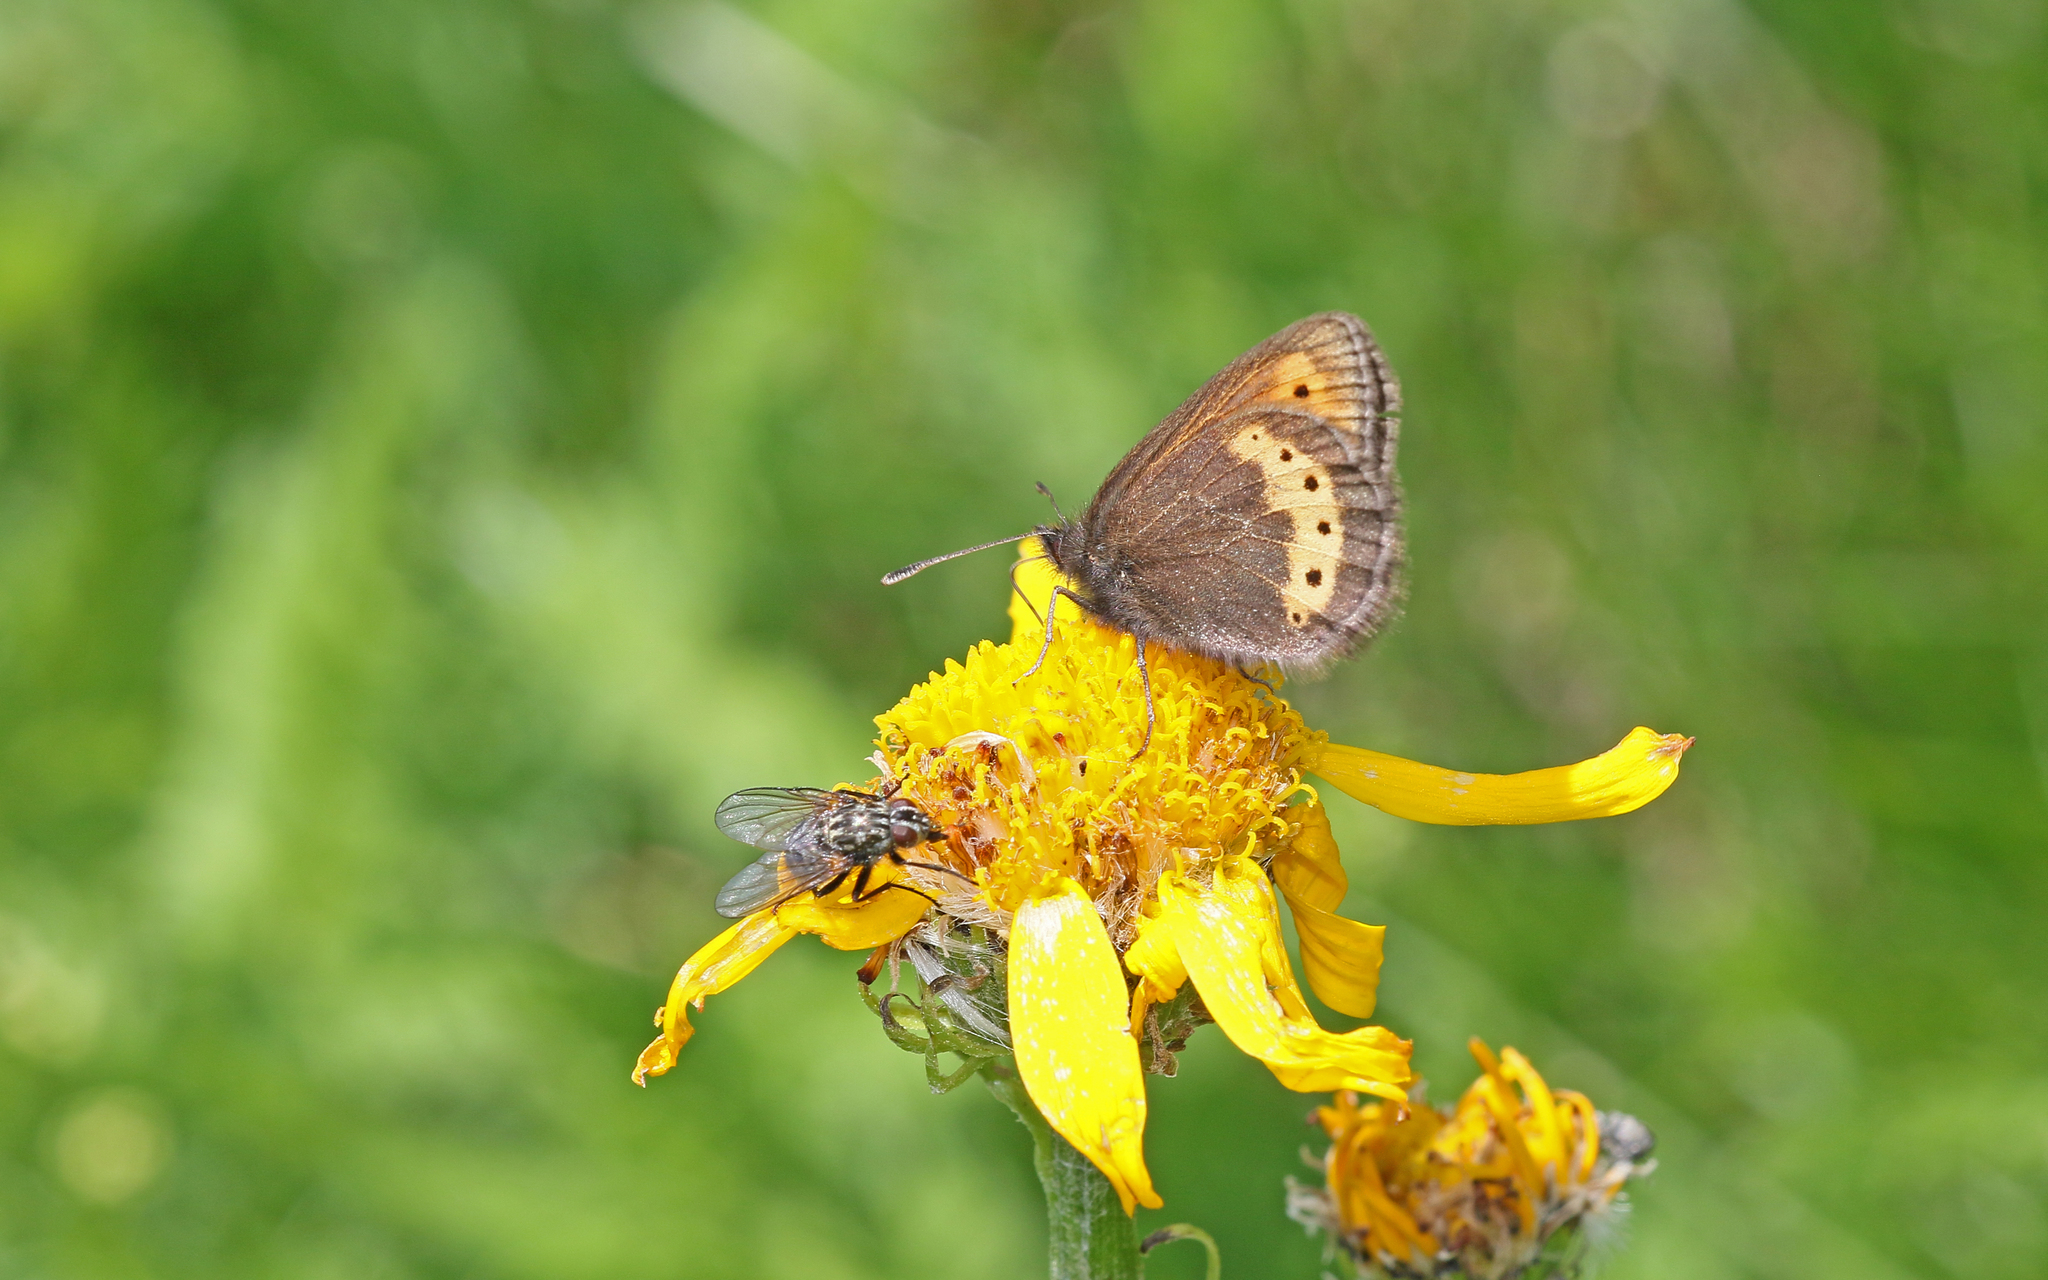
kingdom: Animalia
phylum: Arthropoda
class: Insecta
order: Lepidoptera
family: Nymphalidae
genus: Erebia
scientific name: Erebia flavofasciata
